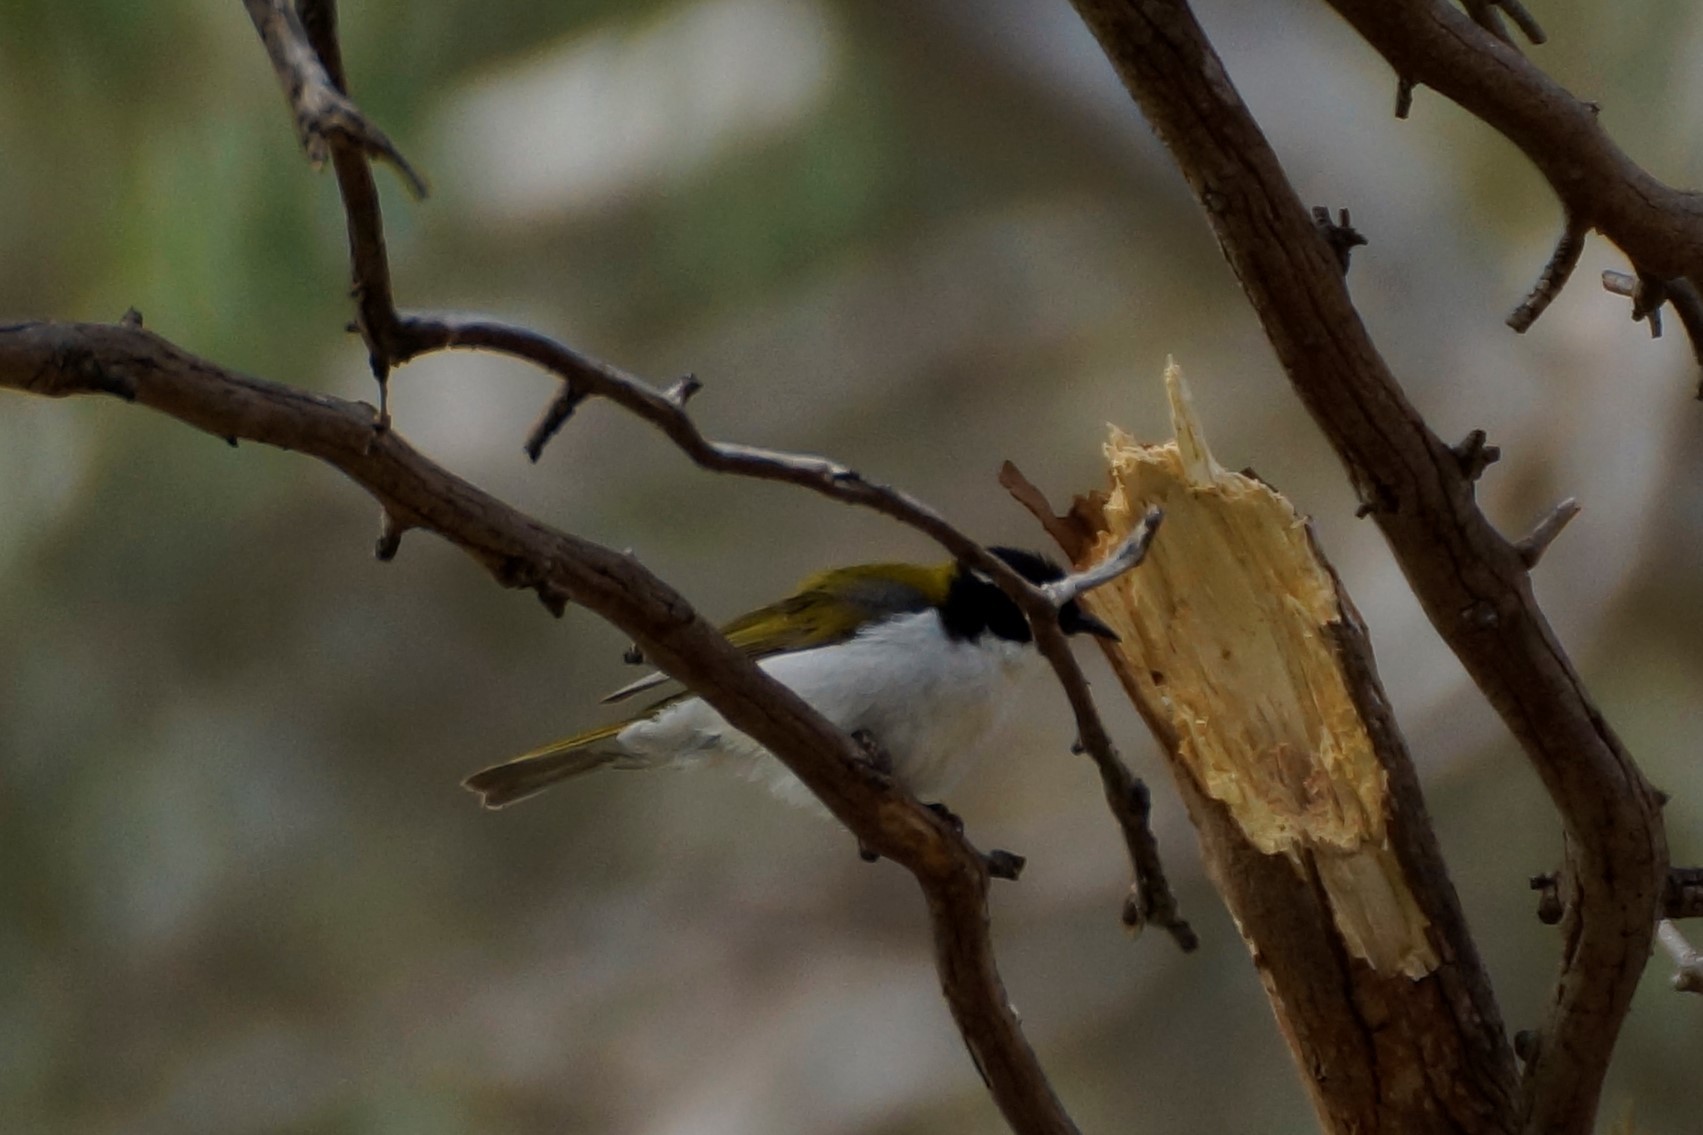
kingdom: Animalia
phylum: Chordata
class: Aves
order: Passeriformes
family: Meliphagidae
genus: Melithreptus
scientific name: Melithreptus lunatus
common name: White-naped honeyeater
